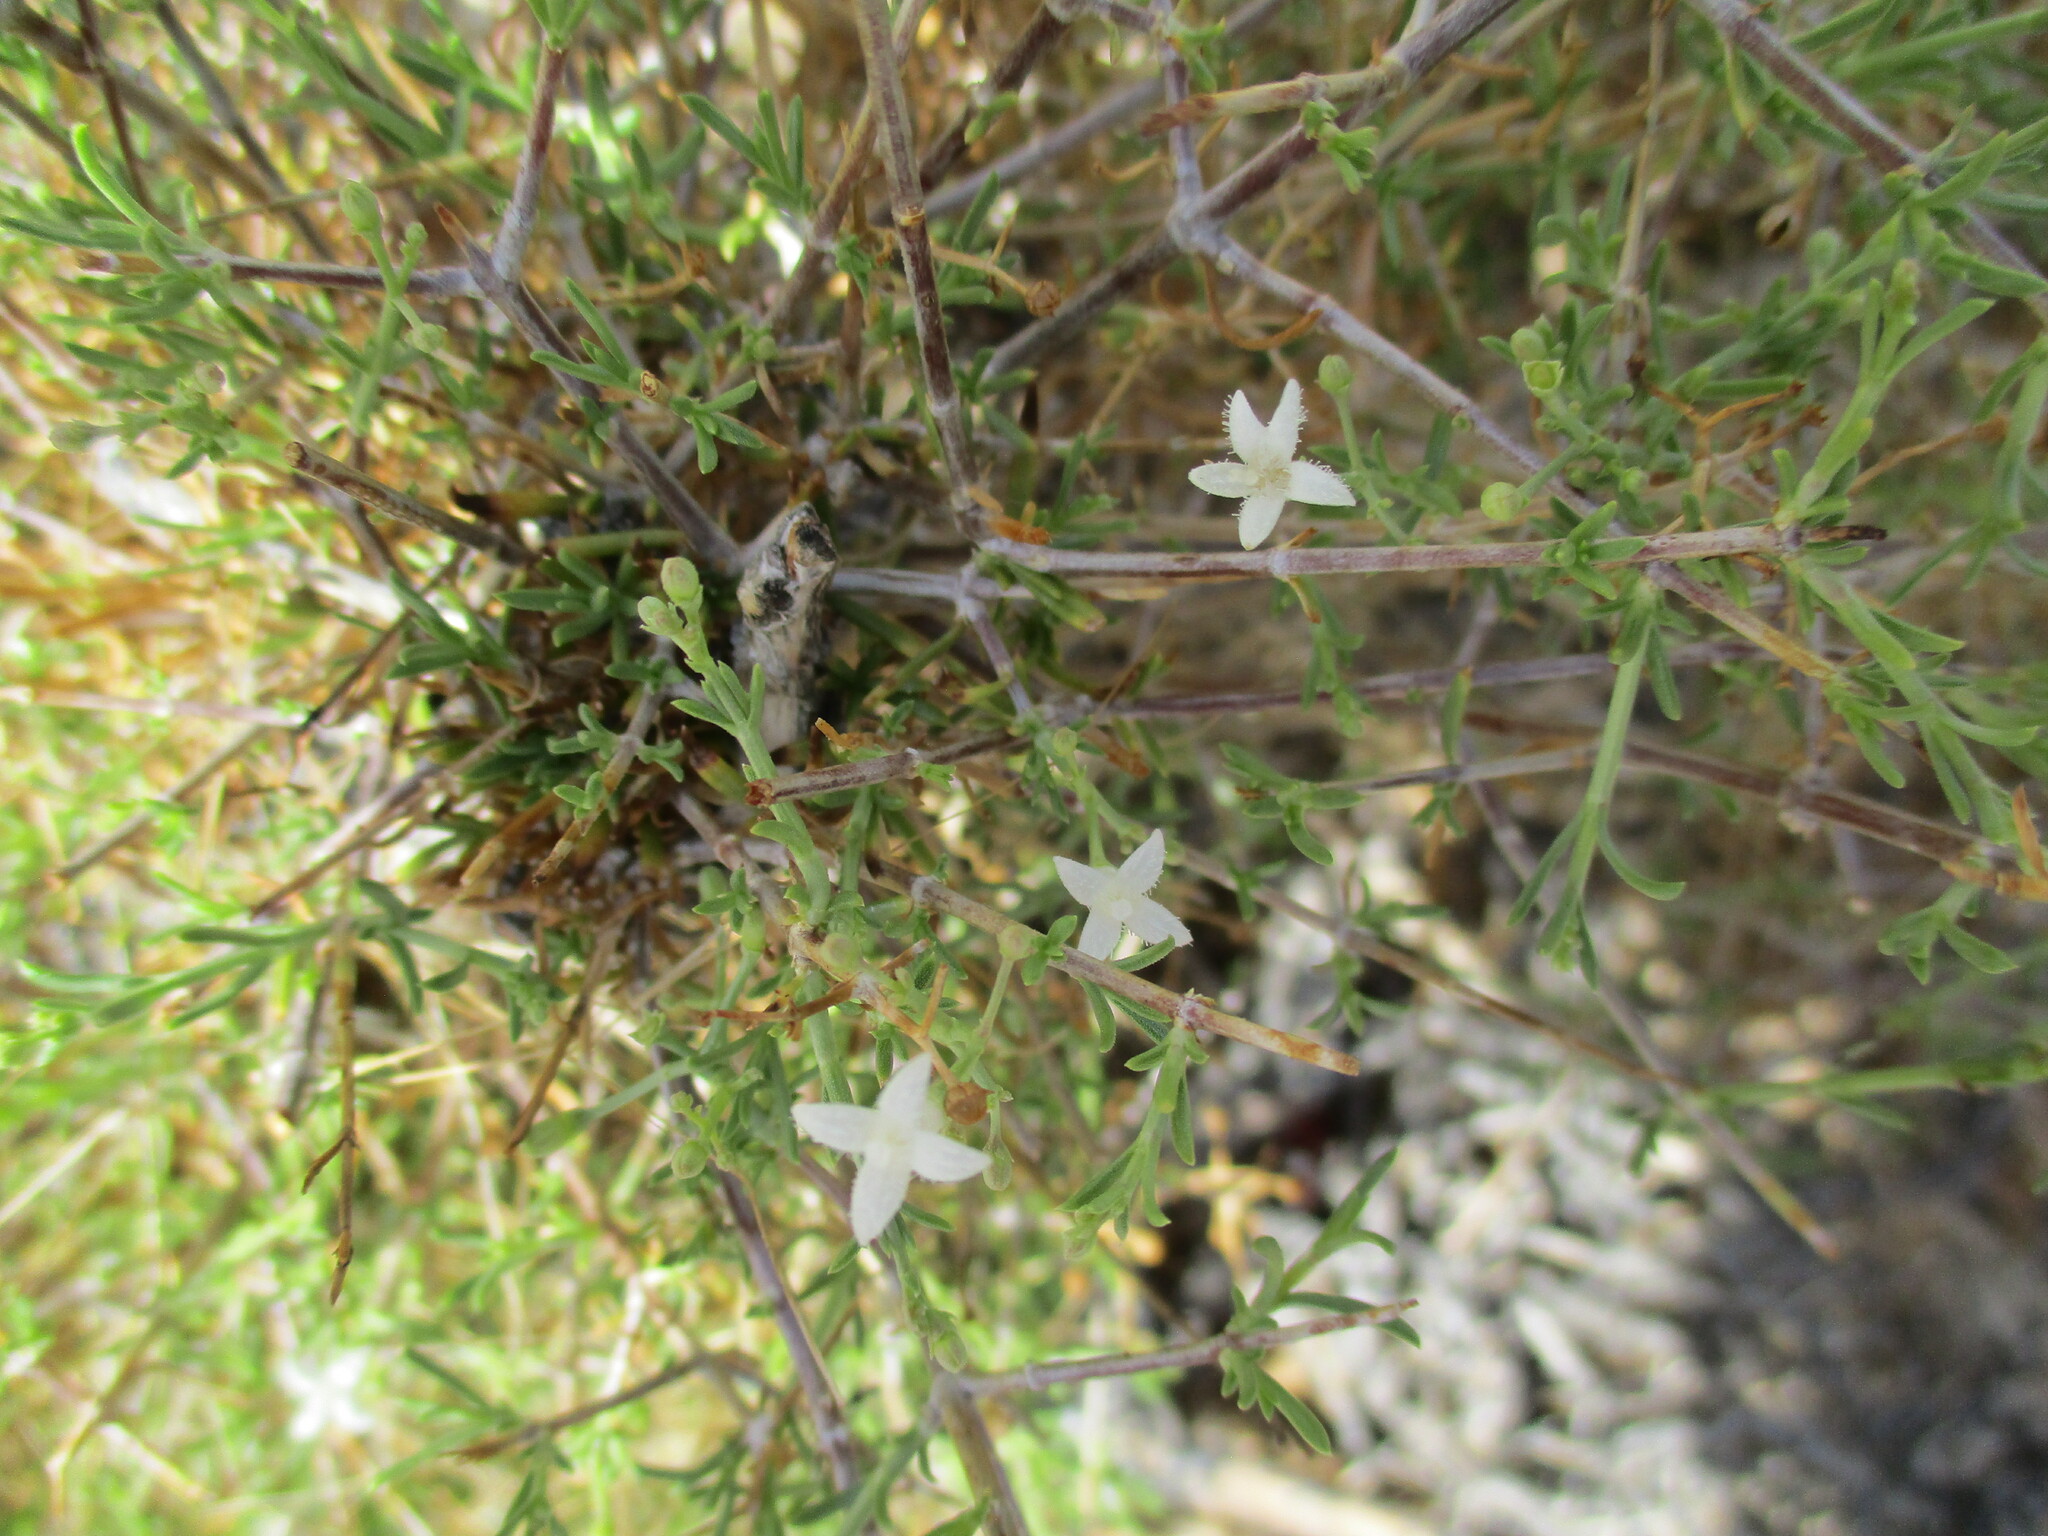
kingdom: Plantae
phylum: Tracheophyta
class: Magnoliopsida
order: Gentianales
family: Rubiaceae
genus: Amphiasma
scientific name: Amphiasma divaricatum
